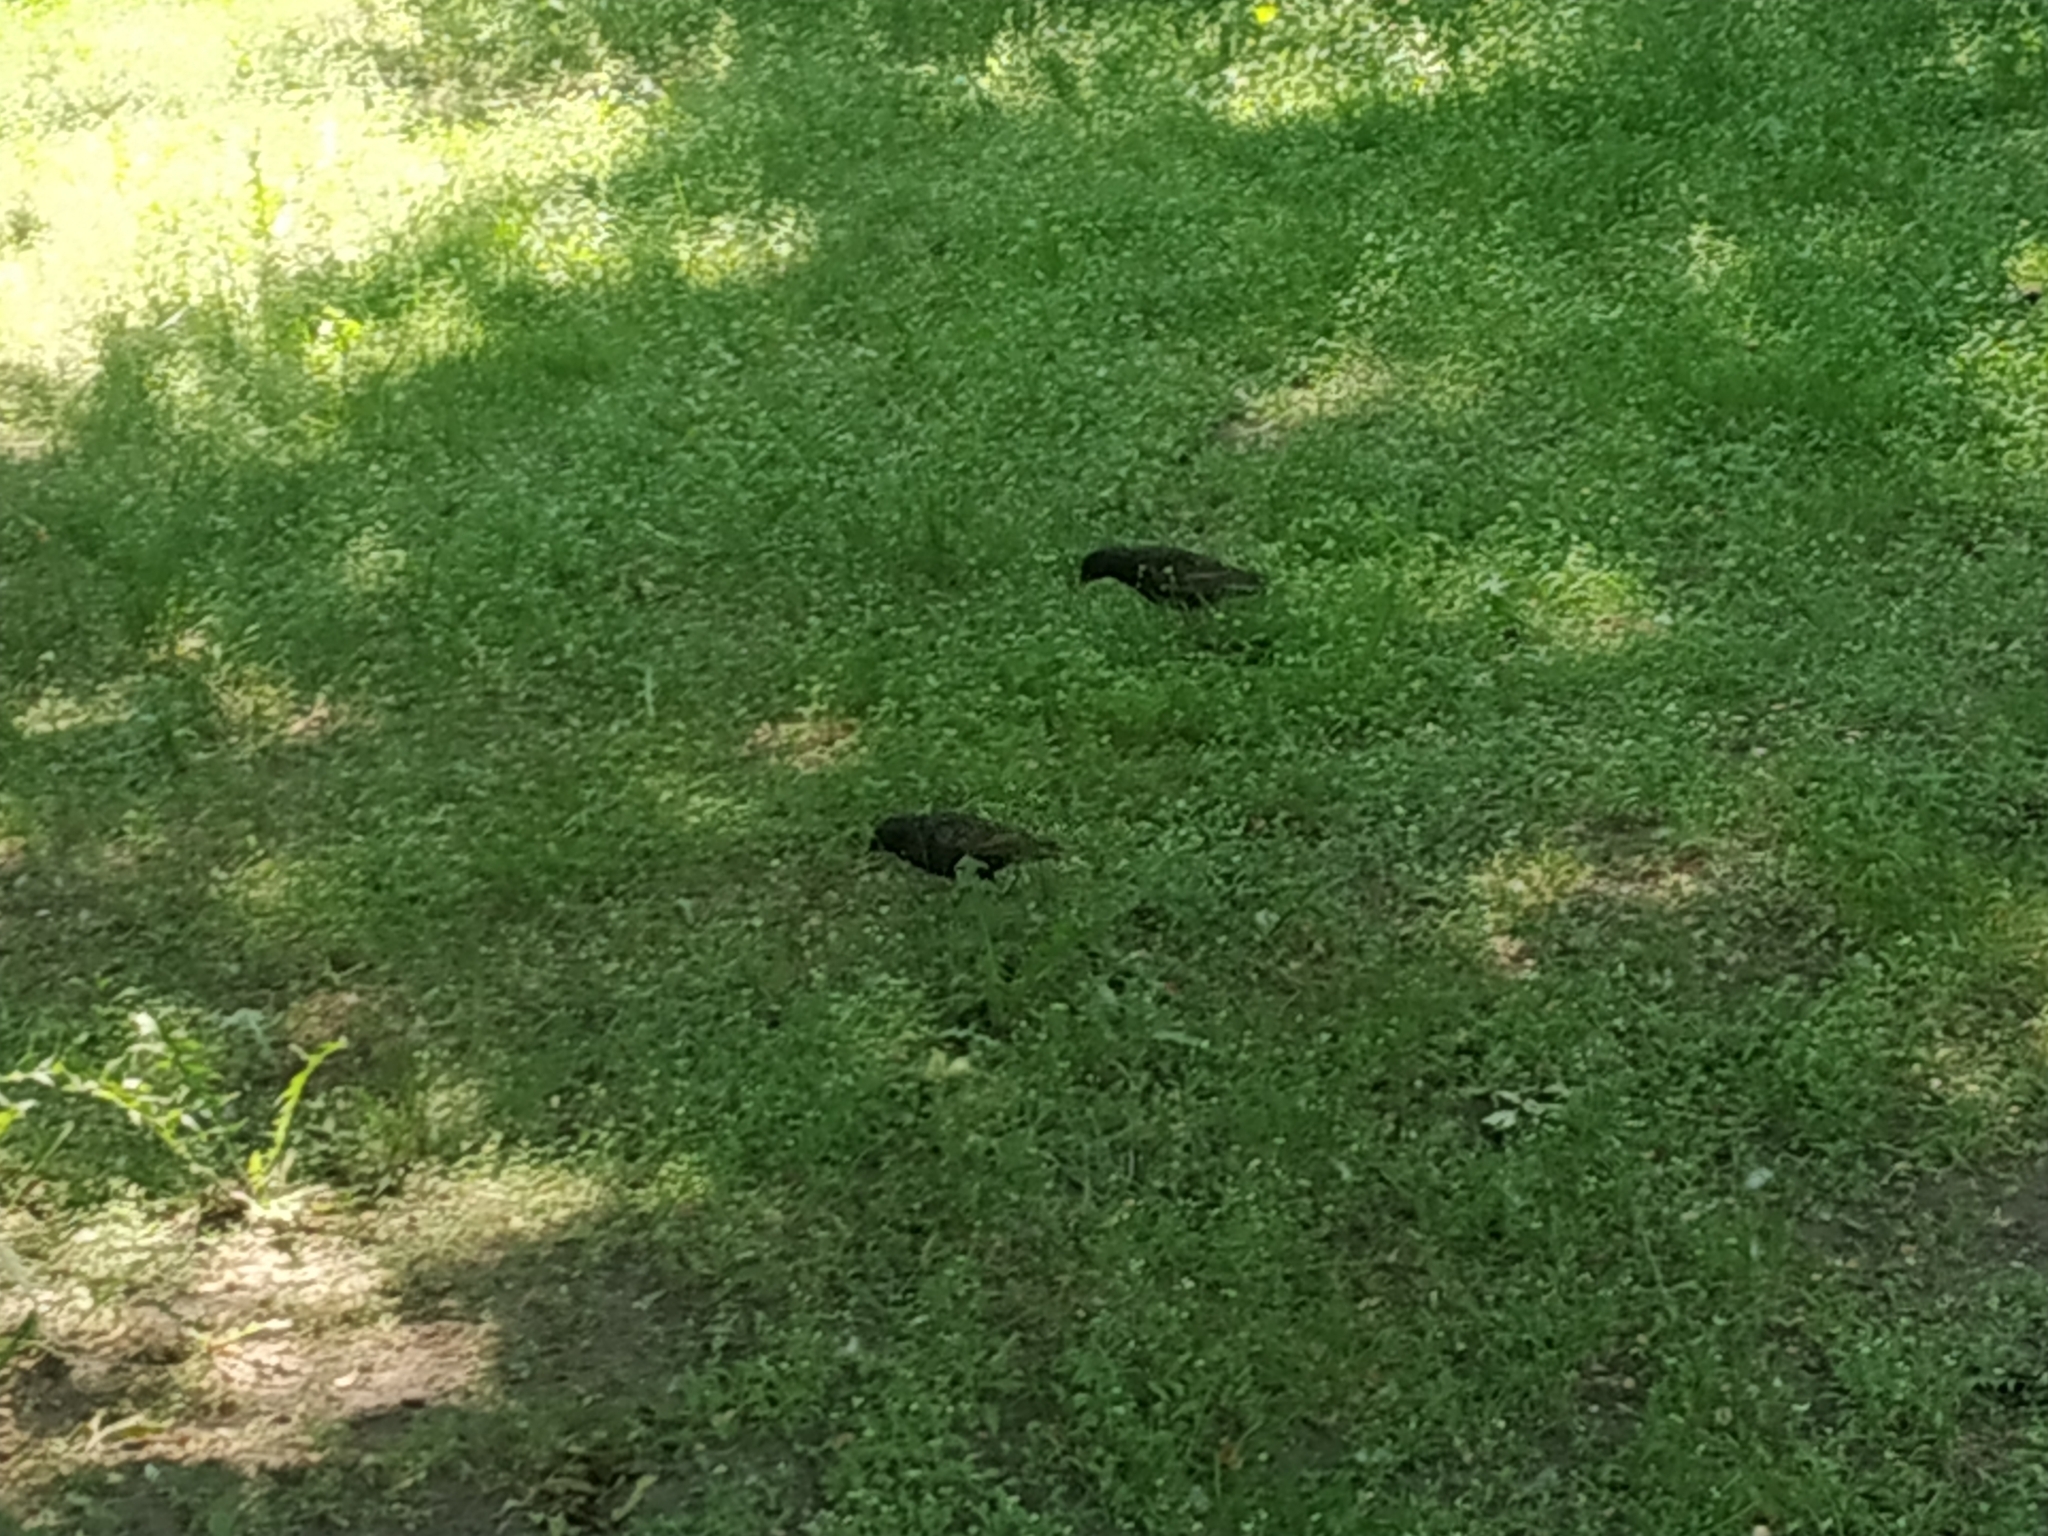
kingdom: Animalia
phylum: Chordata
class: Aves
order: Passeriformes
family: Sturnidae
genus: Sturnus
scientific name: Sturnus vulgaris
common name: Common starling
